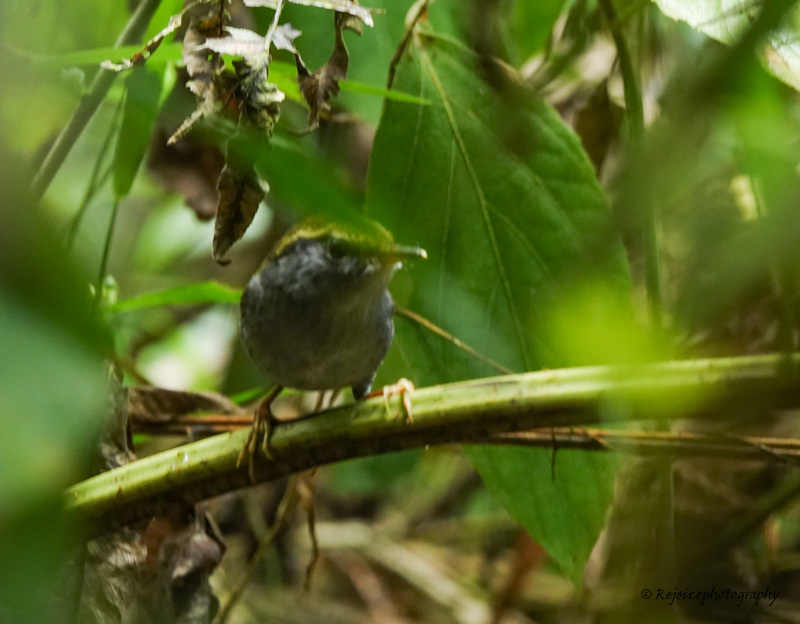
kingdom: Animalia
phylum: Chordata
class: Aves
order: Passeriformes
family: Cettiidae
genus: Tesia
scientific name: Tesia cyaniventer
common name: Grey-bellied tesia
